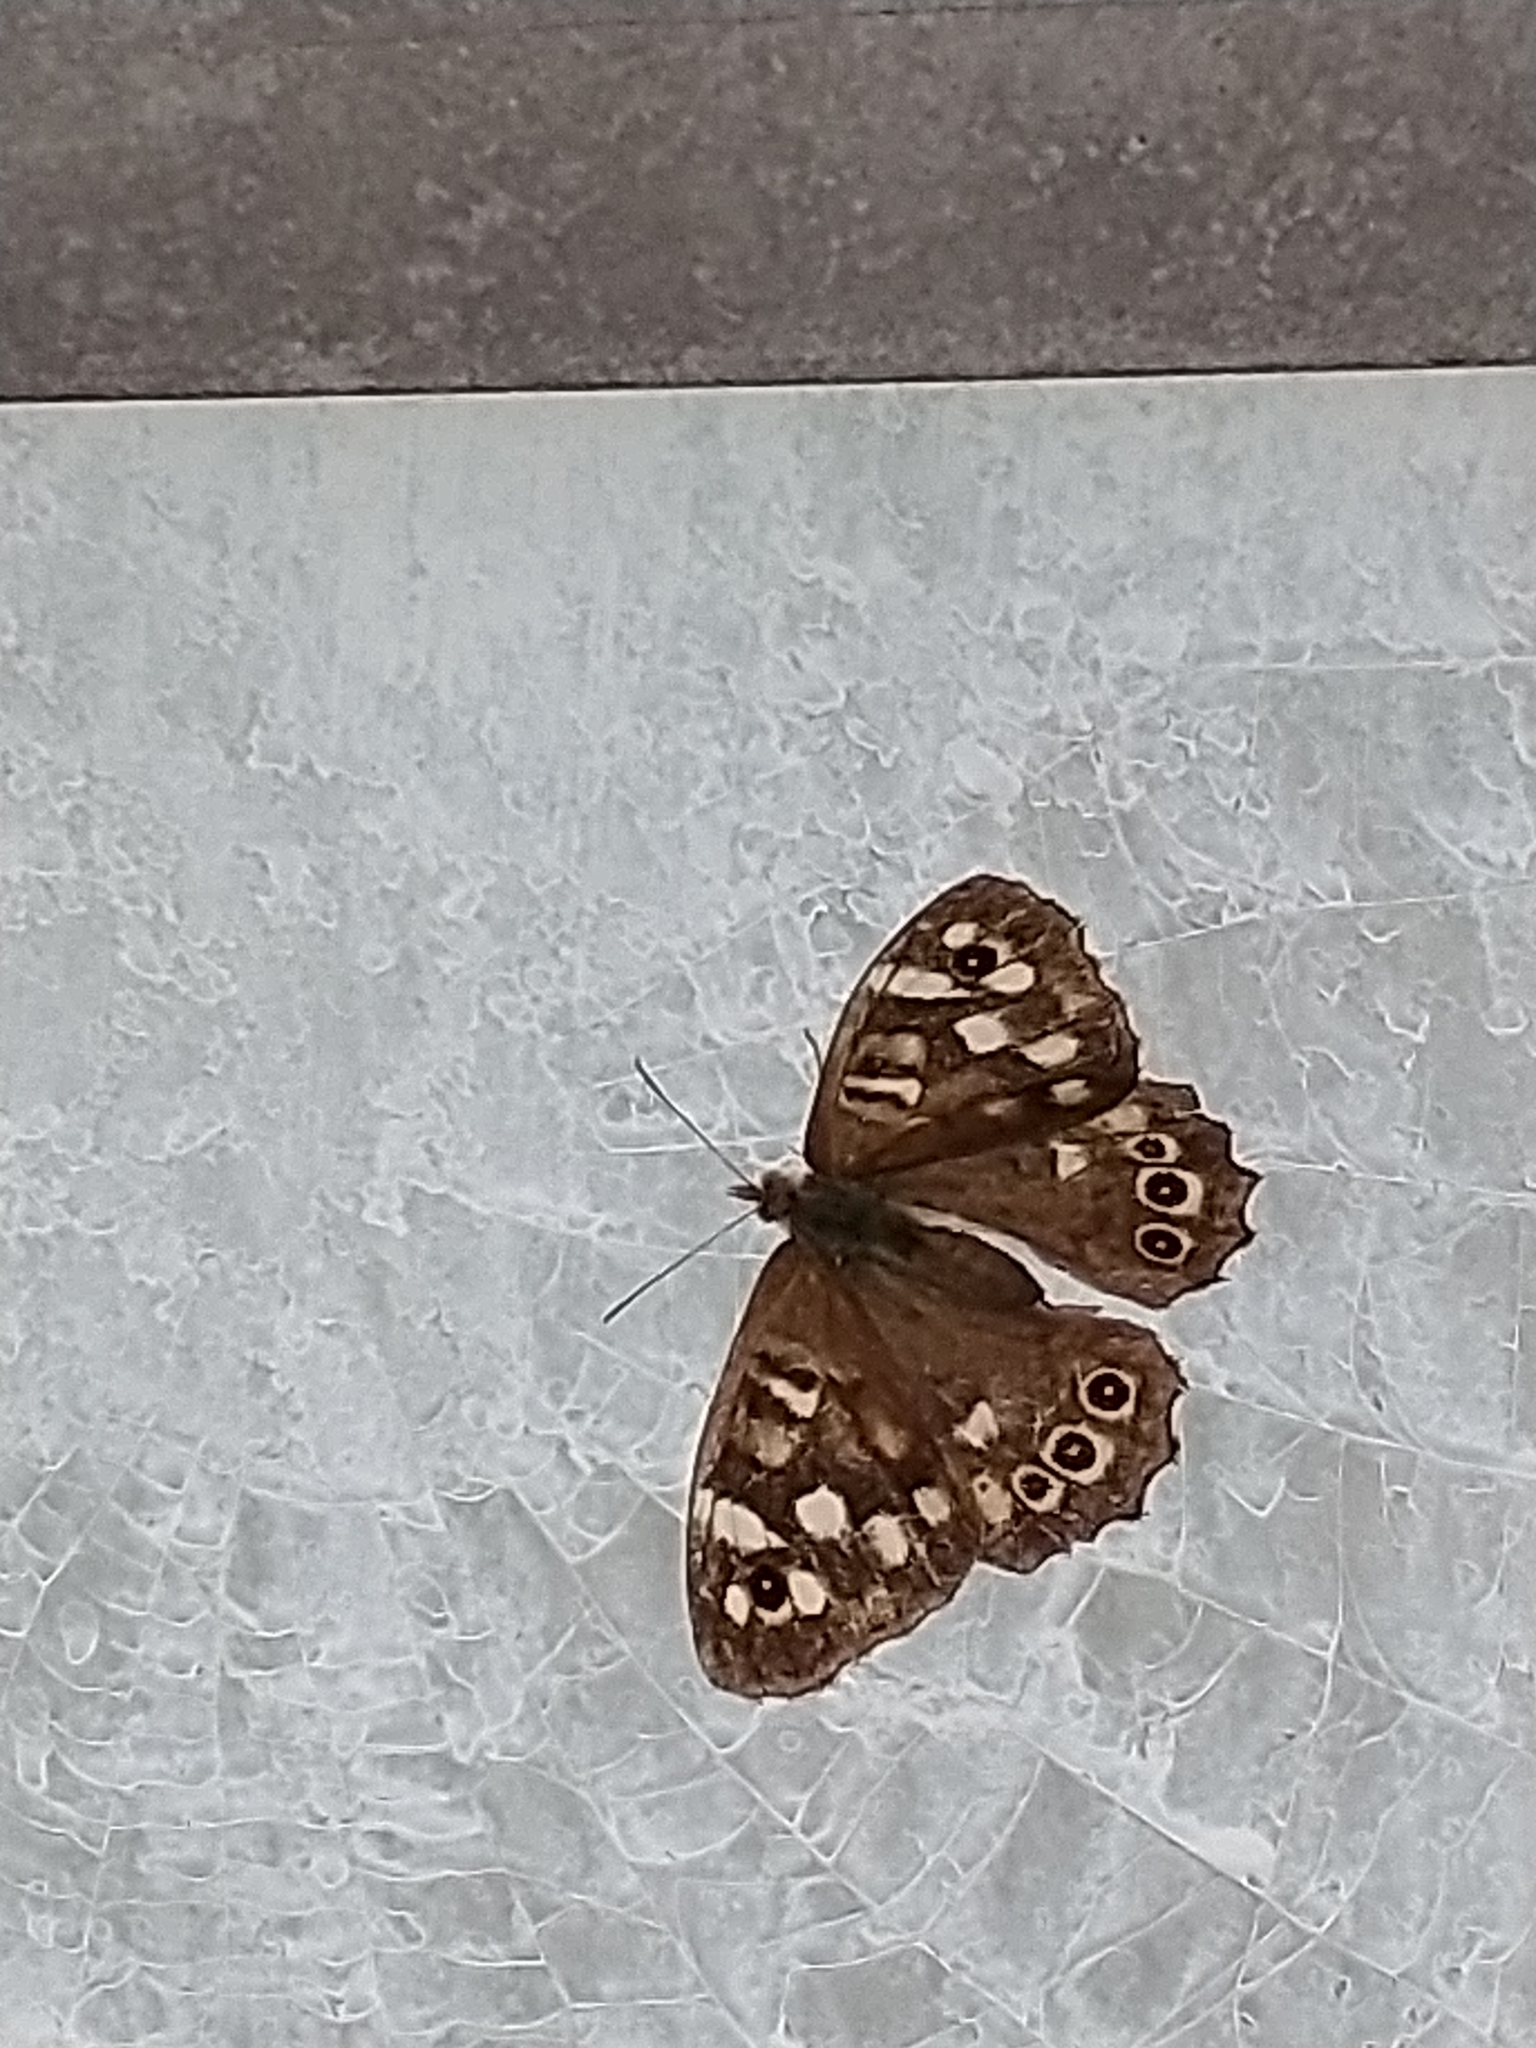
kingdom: Animalia
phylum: Arthropoda
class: Insecta
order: Lepidoptera
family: Nymphalidae
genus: Pararge
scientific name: Pararge aegeria
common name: Speckled wood
